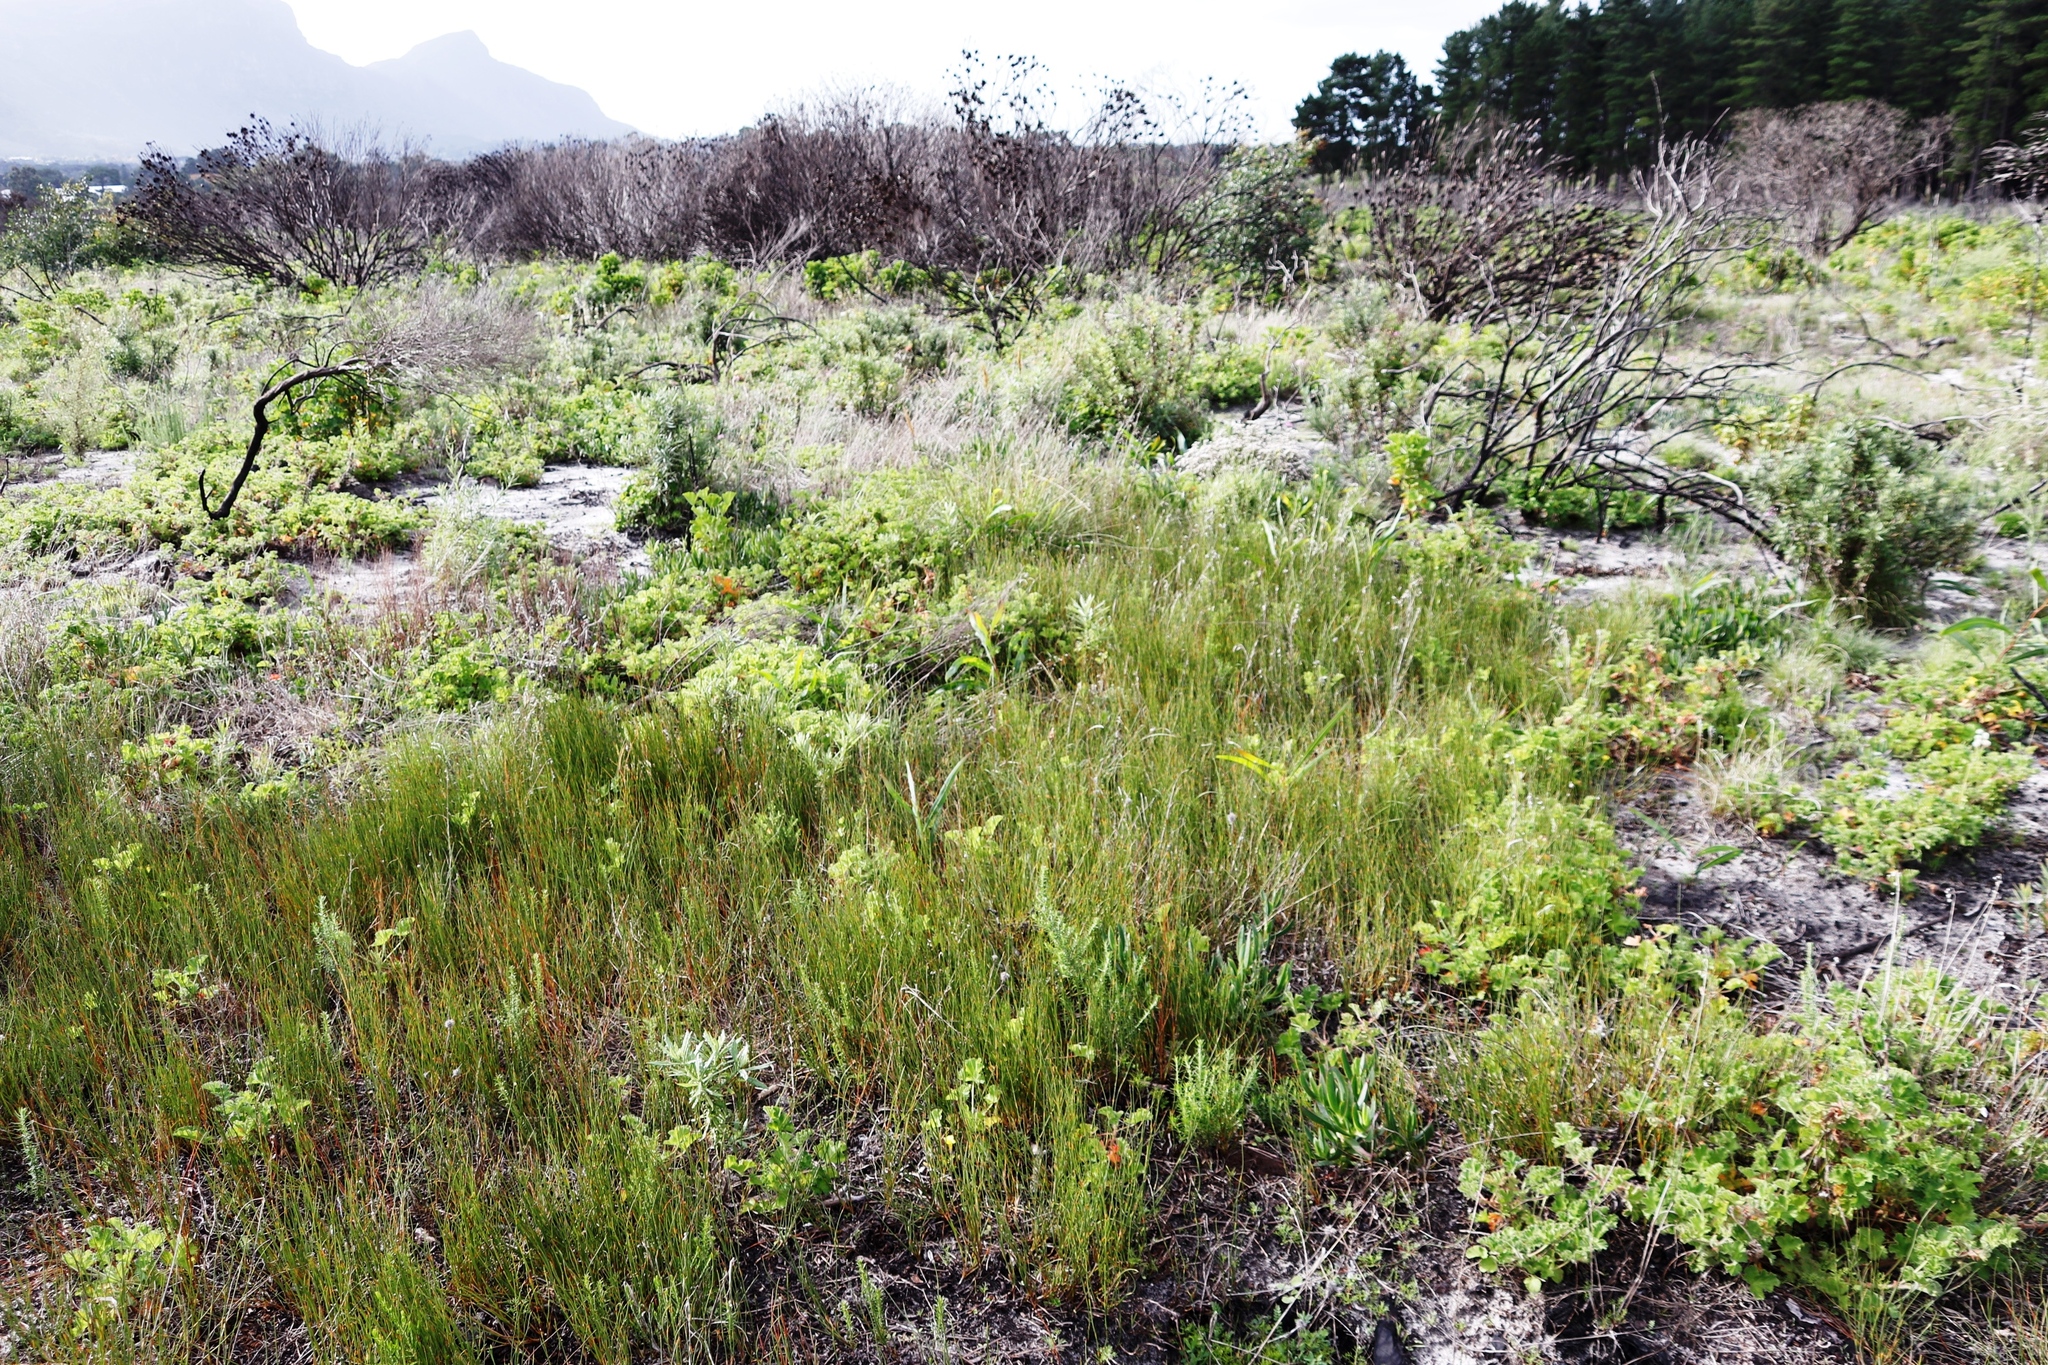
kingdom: Plantae
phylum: Tracheophyta
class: Liliopsida
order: Poales
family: Restionaceae
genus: Willdenowia
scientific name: Willdenowia sulcata
